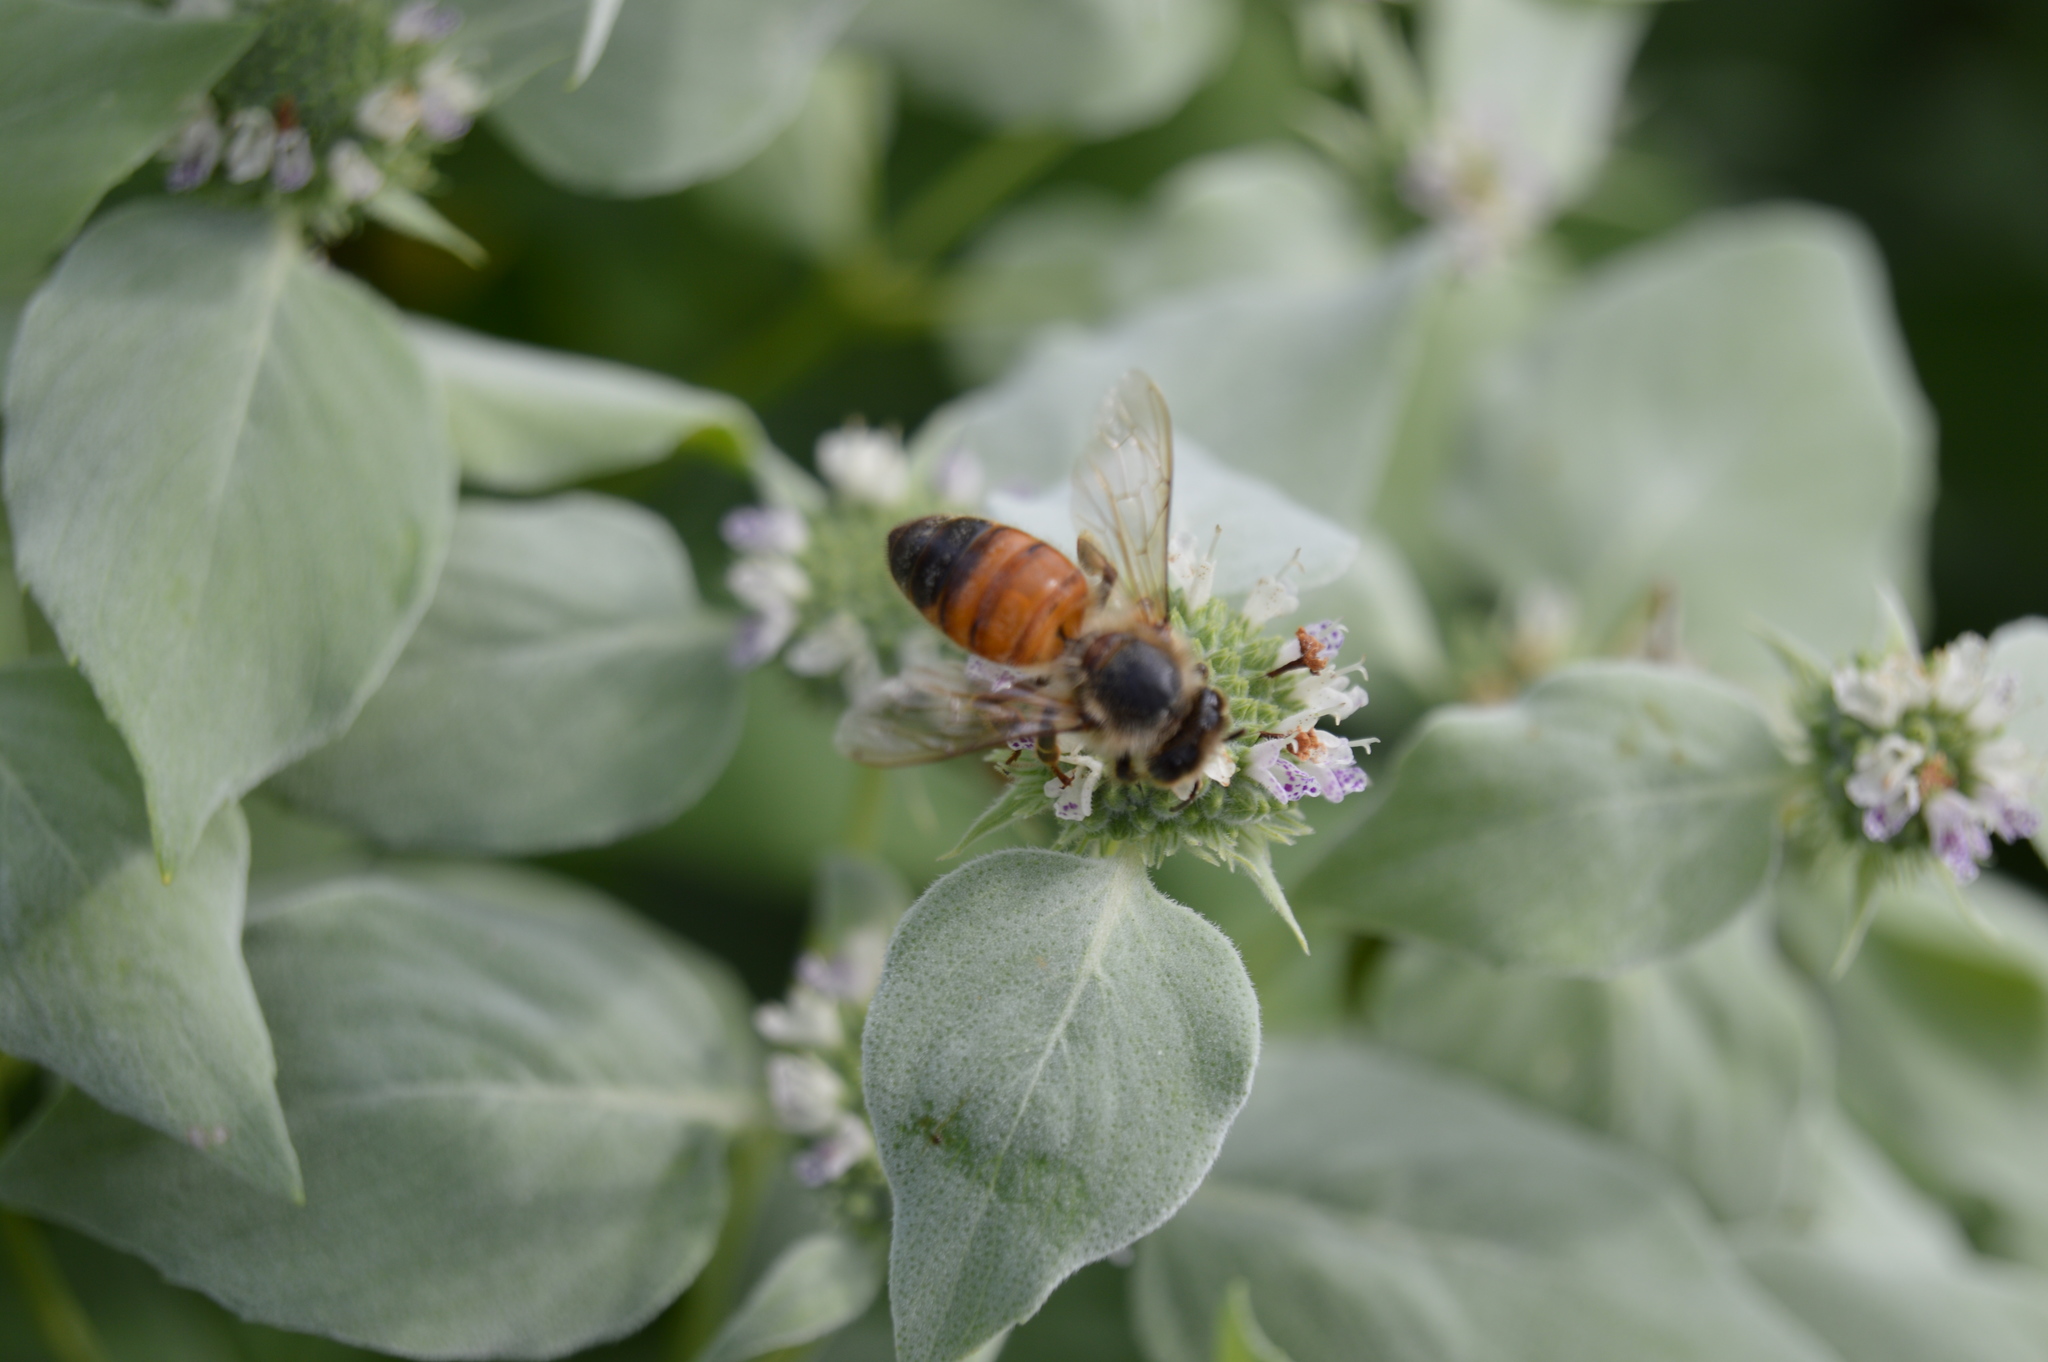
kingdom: Animalia
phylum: Arthropoda
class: Insecta
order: Hymenoptera
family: Apidae
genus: Apis
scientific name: Apis mellifera
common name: Honey bee
